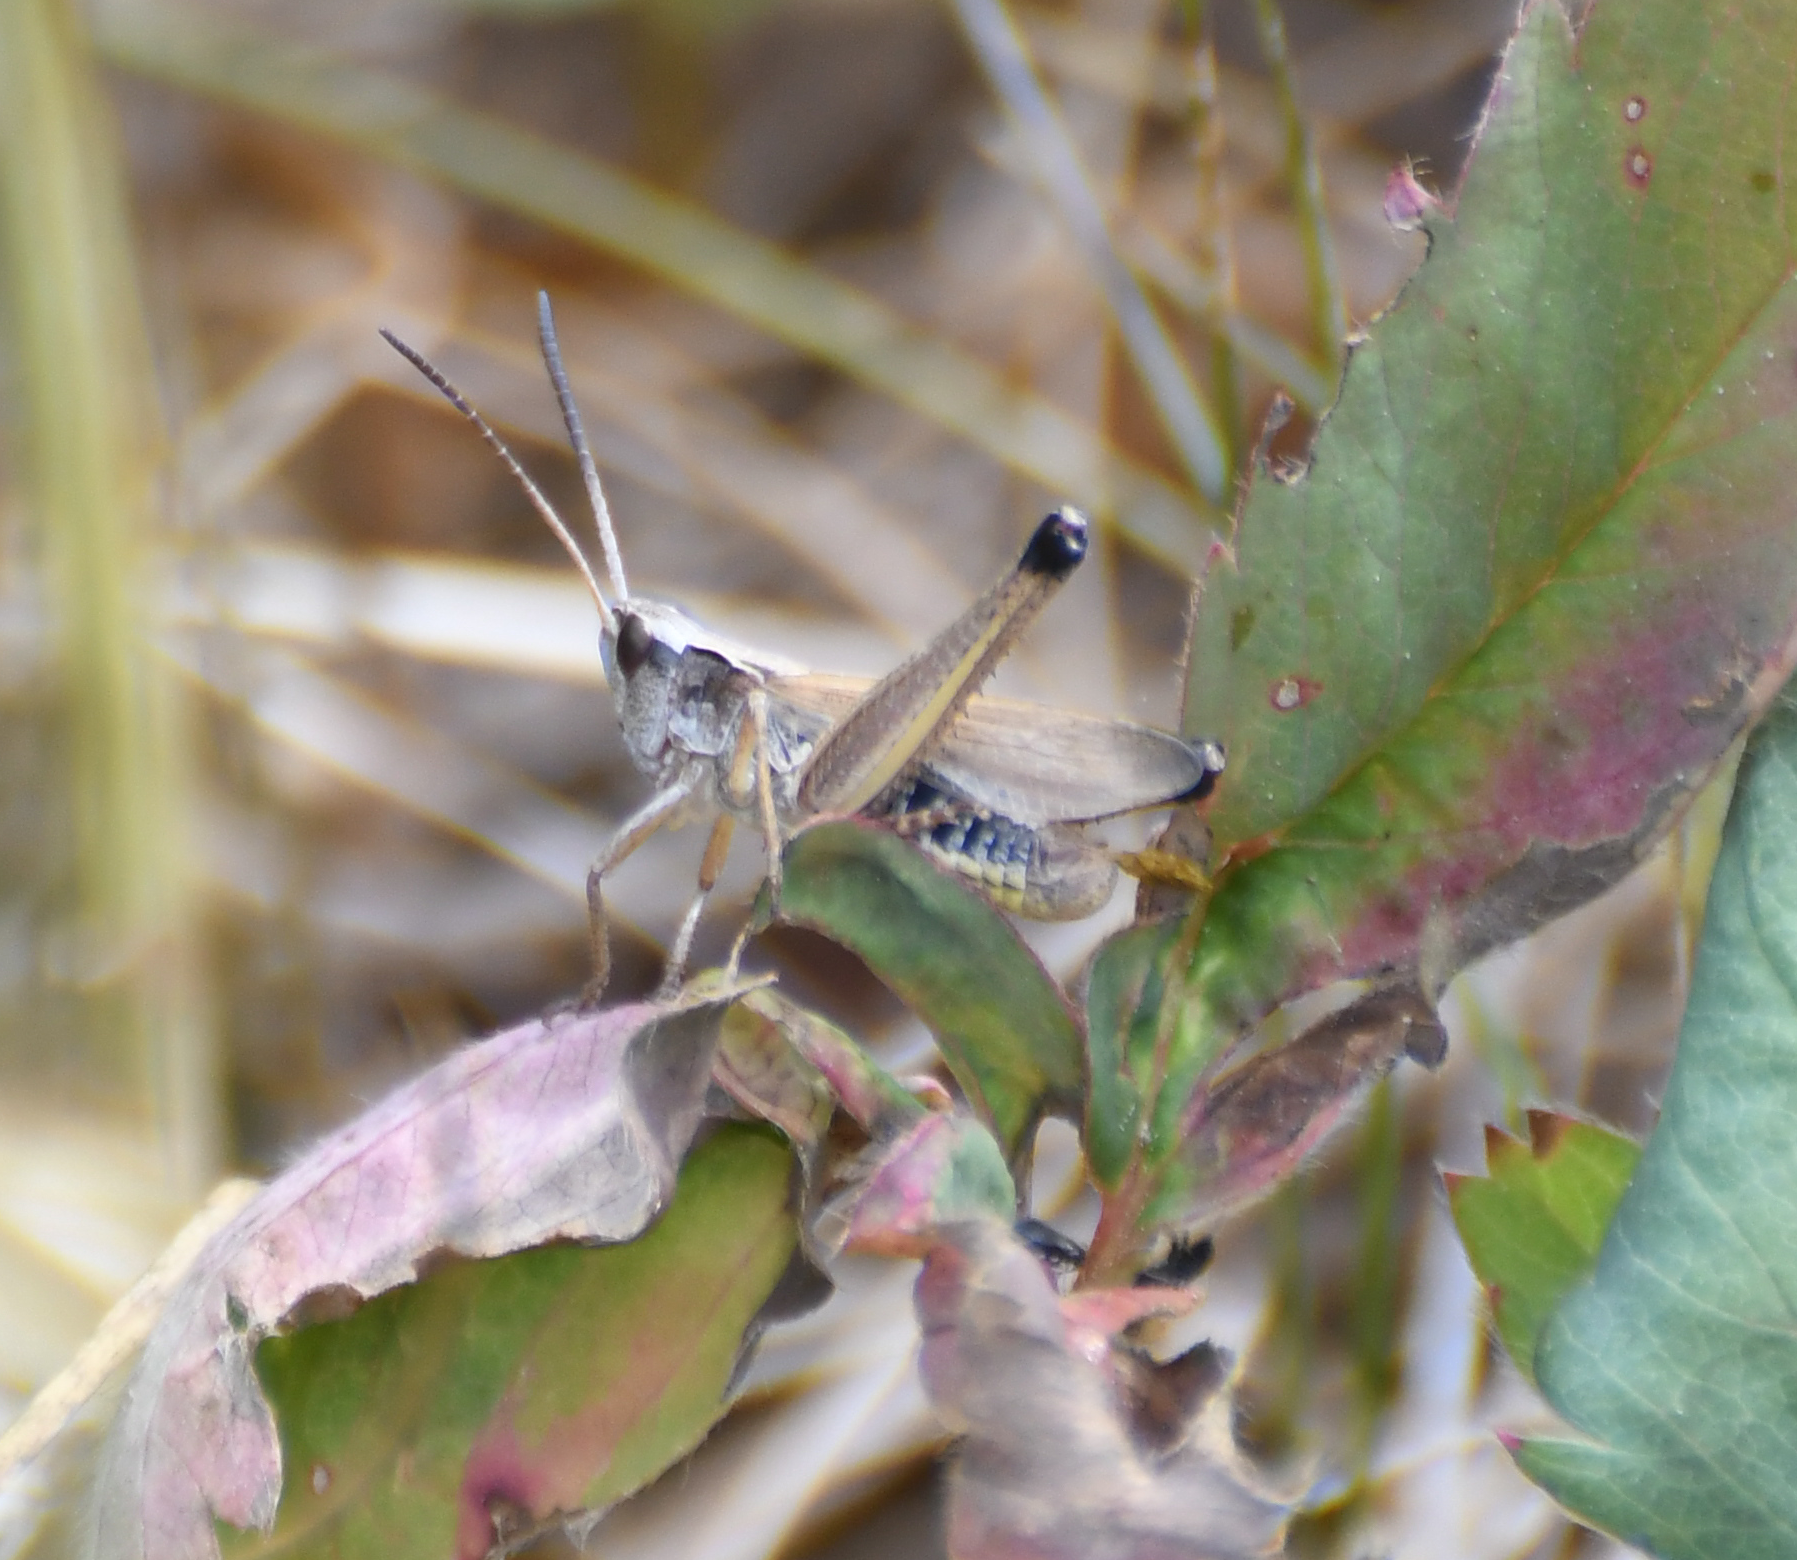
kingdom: Animalia
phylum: Arthropoda
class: Insecta
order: Orthoptera
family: Acrididae
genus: Pseudochorthippus
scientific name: Pseudochorthippus curtipennis
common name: Marsh meadow grasshopper
